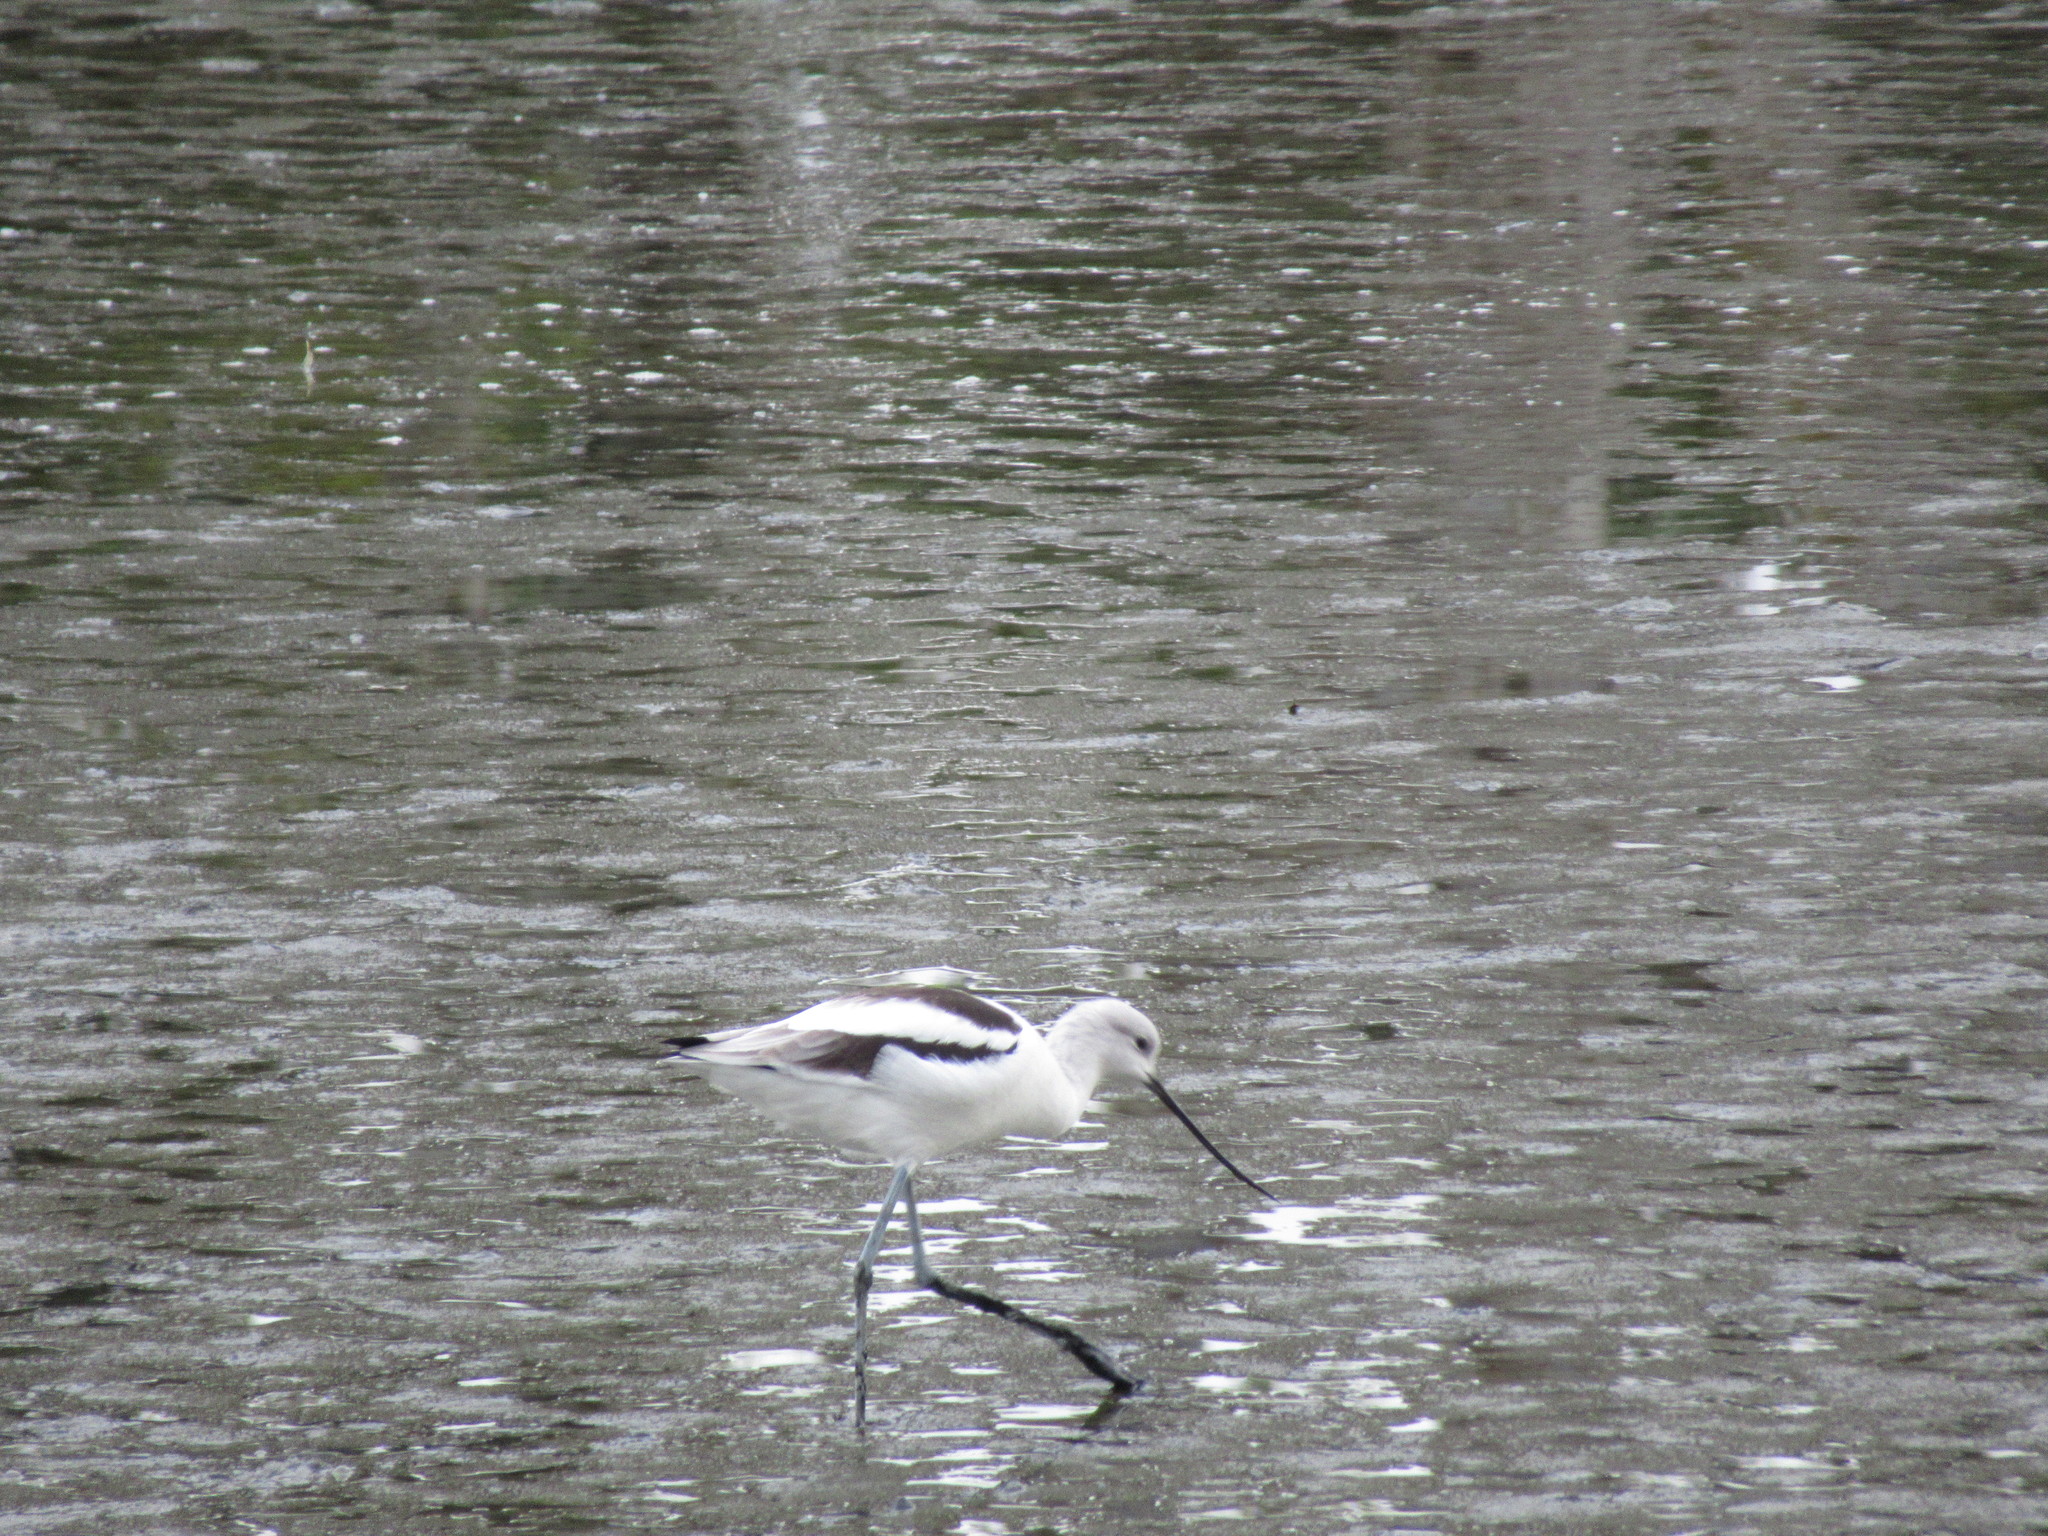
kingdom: Animalia
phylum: Chordata
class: Aves
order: Charadriiformes
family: Recurvirostridae
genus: Recurvirostra
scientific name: Recurvirostra americana
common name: American avocet
